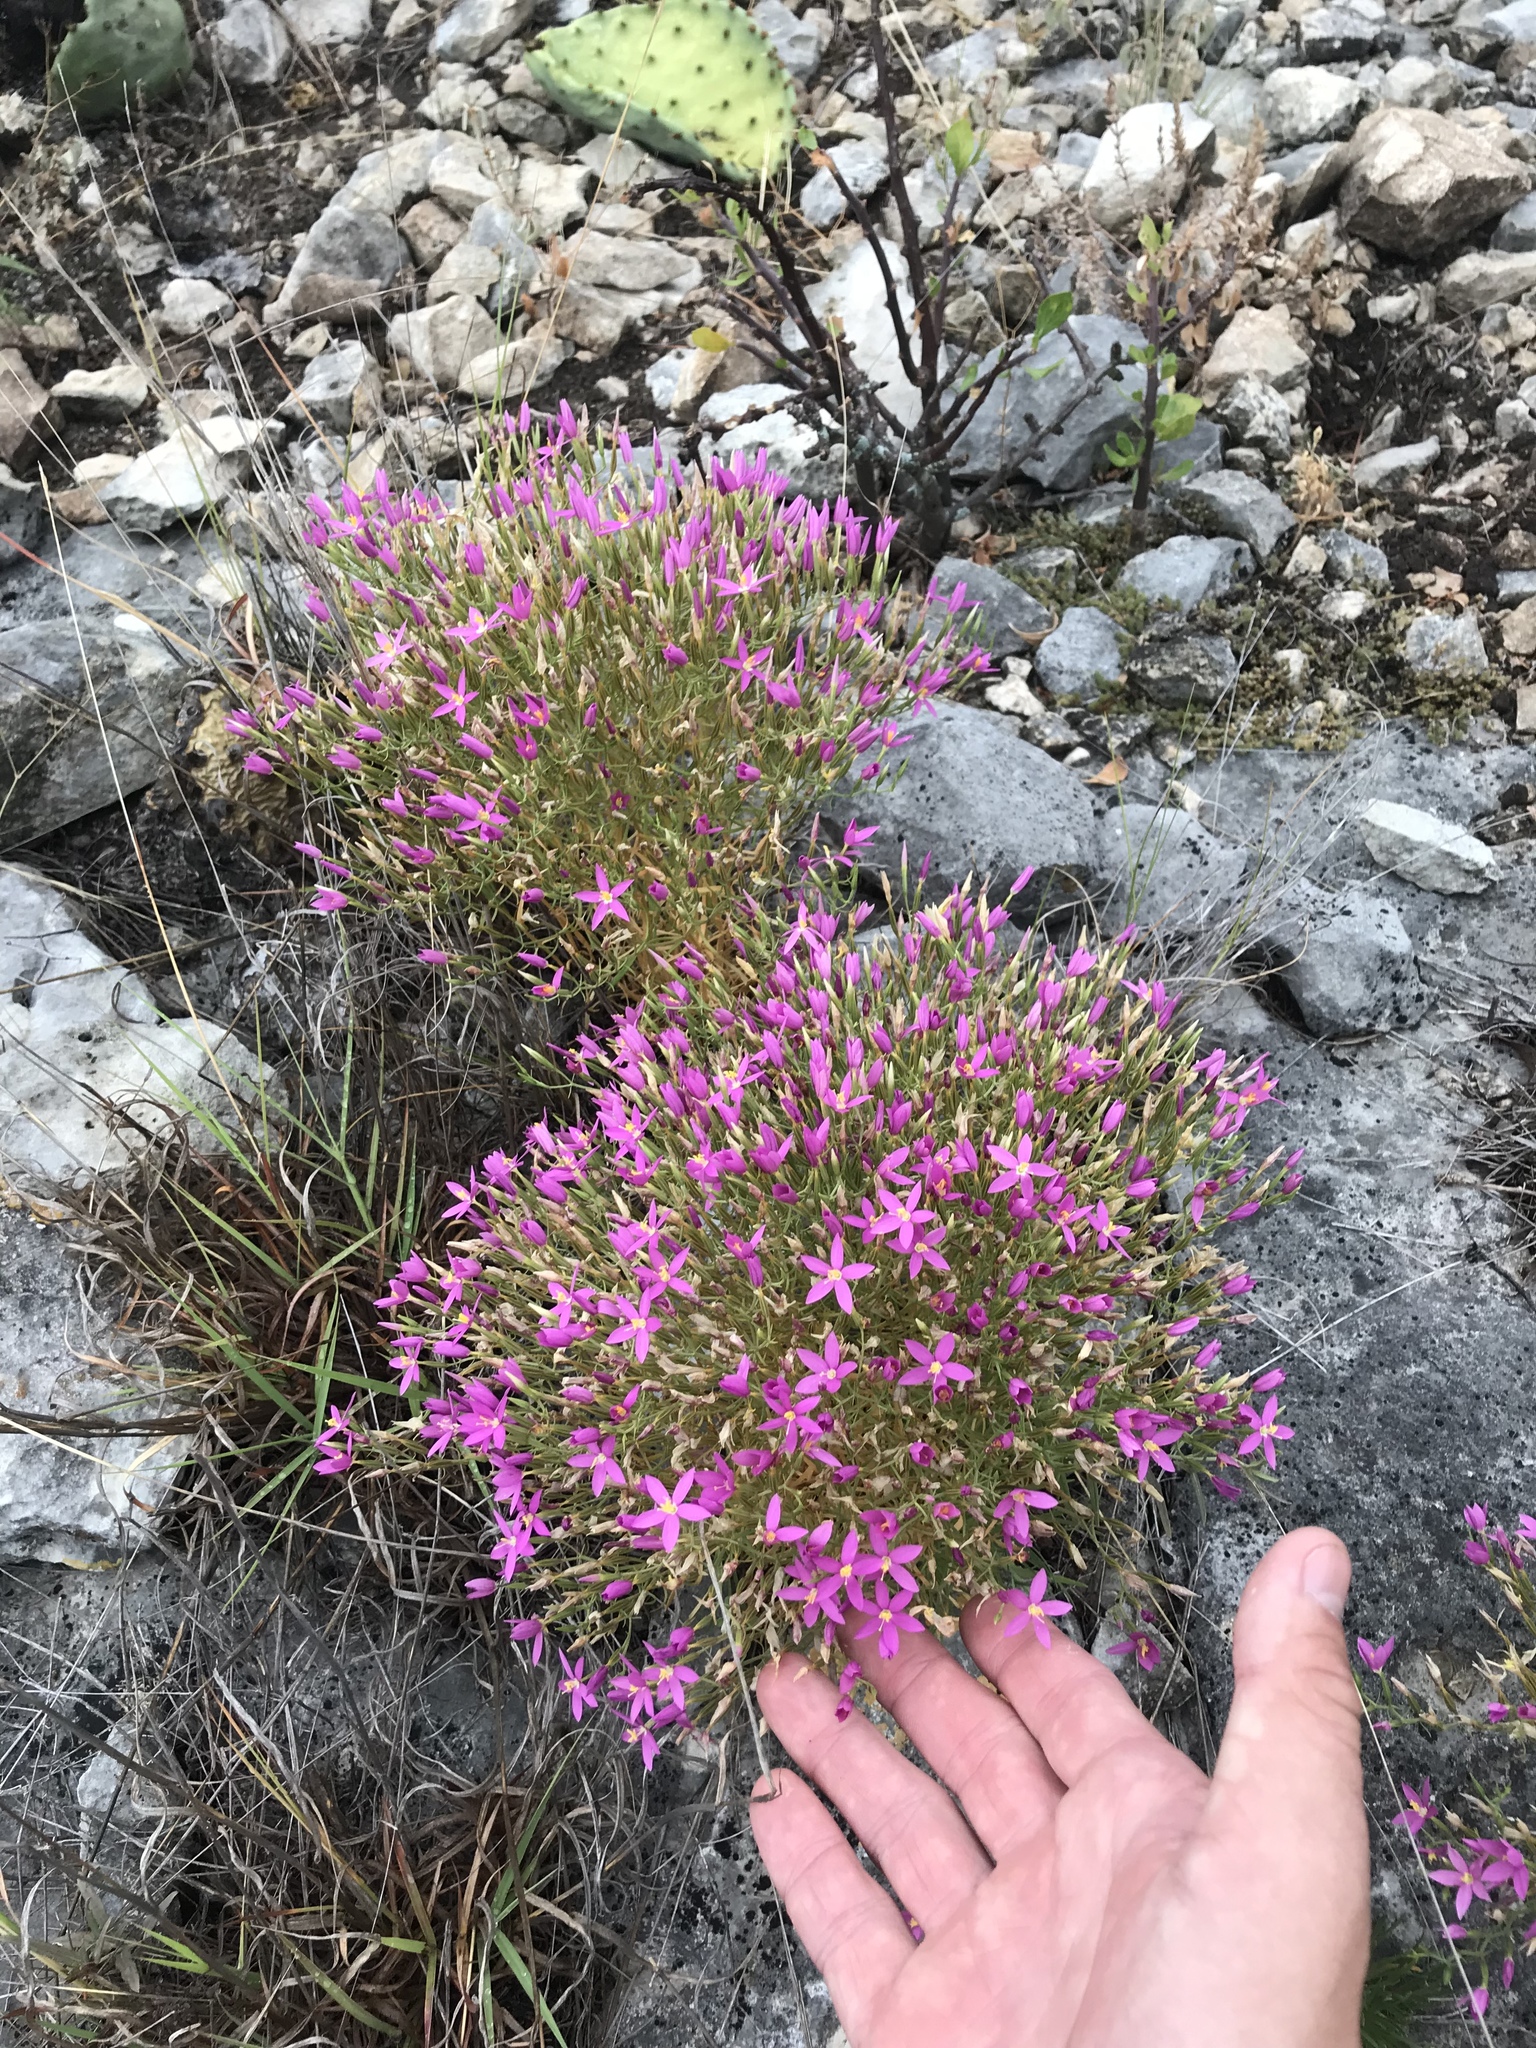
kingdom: Plantae
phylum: Tracheophyta
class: Magnoliopsida
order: Gentianales
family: Gentianaceae
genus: Zeltnera
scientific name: Zeltnera beyrichii
